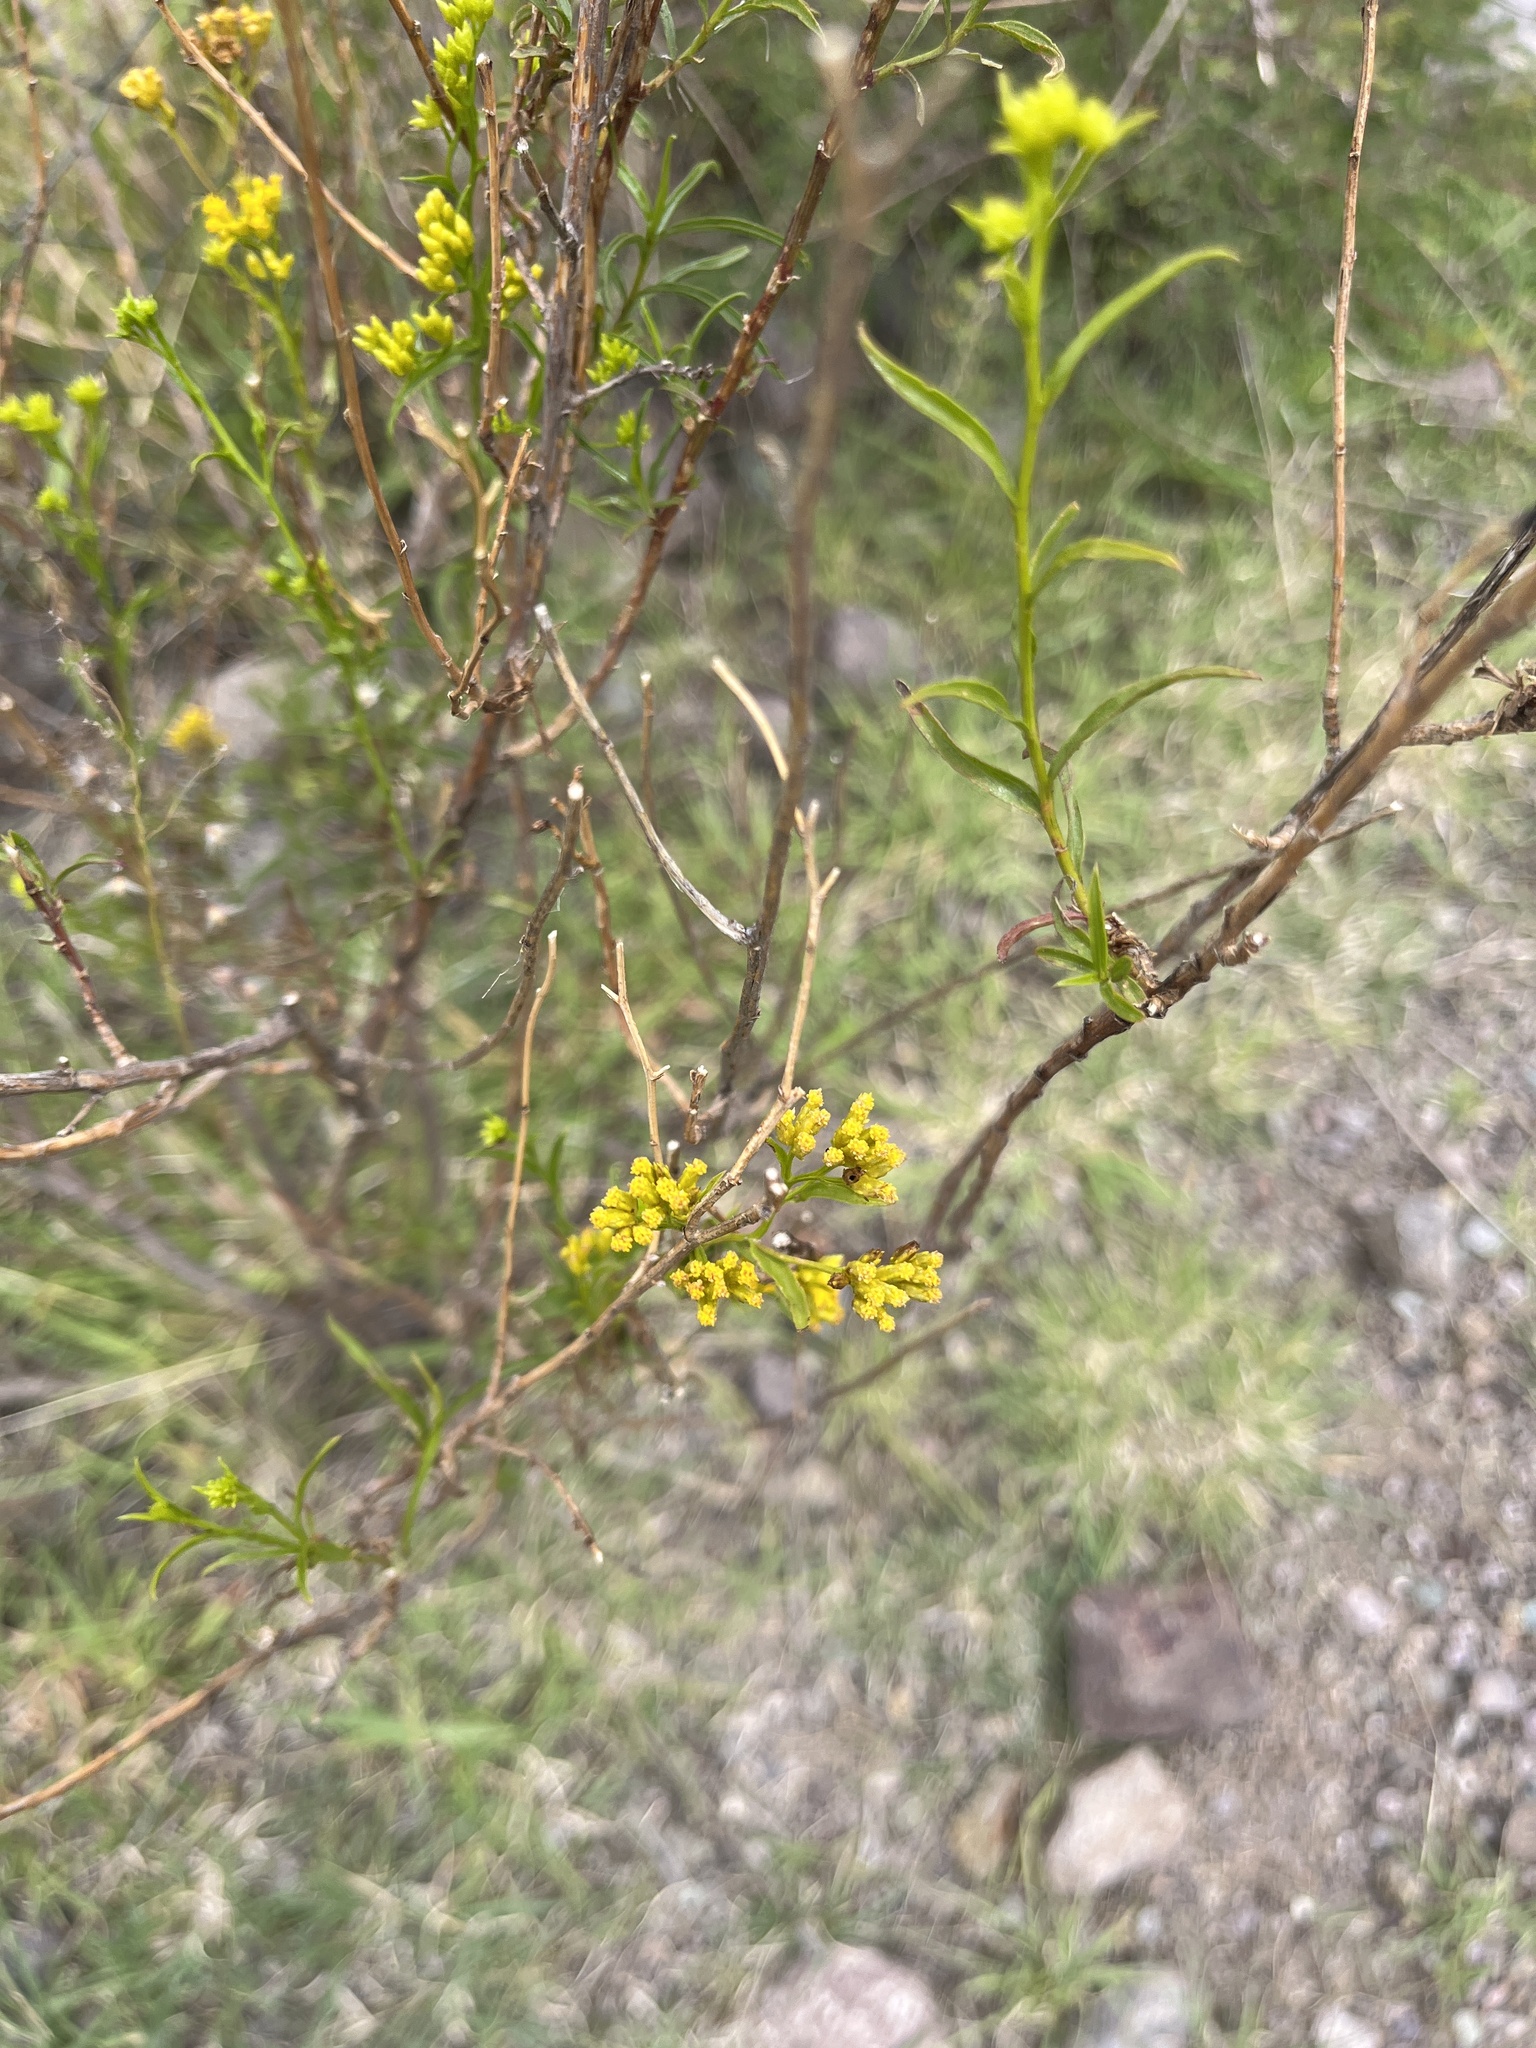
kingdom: Plantae
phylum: Tracheophyta
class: Magnoliopsida
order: Asterales
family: Asteraceae
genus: Gymnosperma
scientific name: Gymnosperma glutinosum
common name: Gumhead
